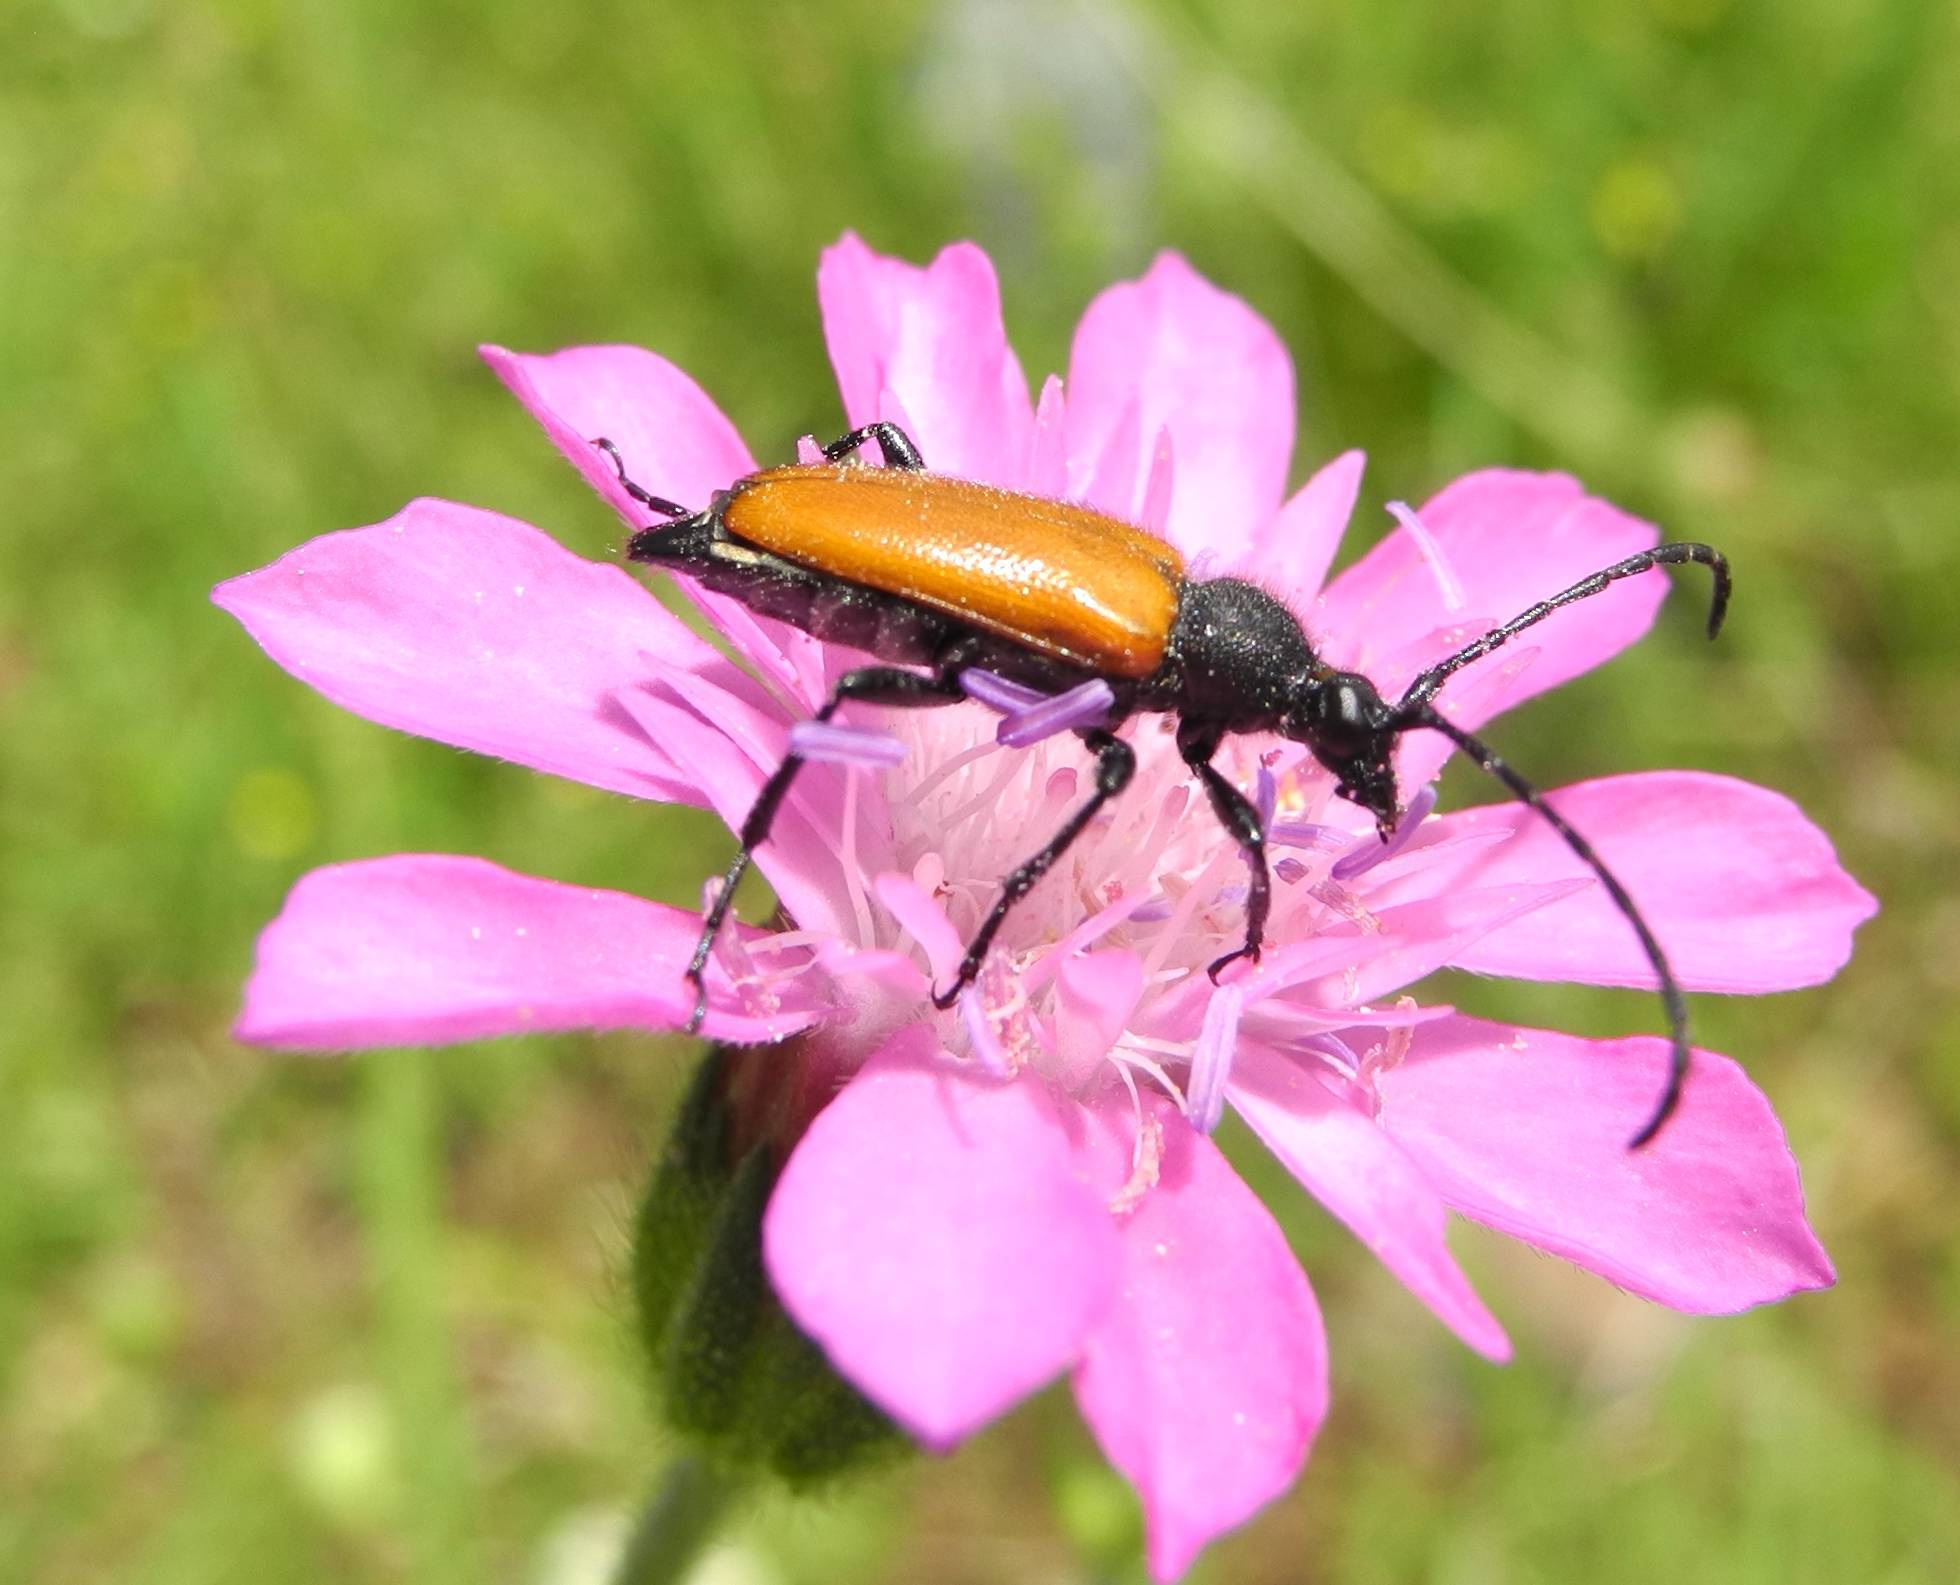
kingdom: Animalia
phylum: Arthropoda
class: Insecta
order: Coleoptera
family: Cerambycidae
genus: Paracorymbia
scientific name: Paracorymbia pallens
